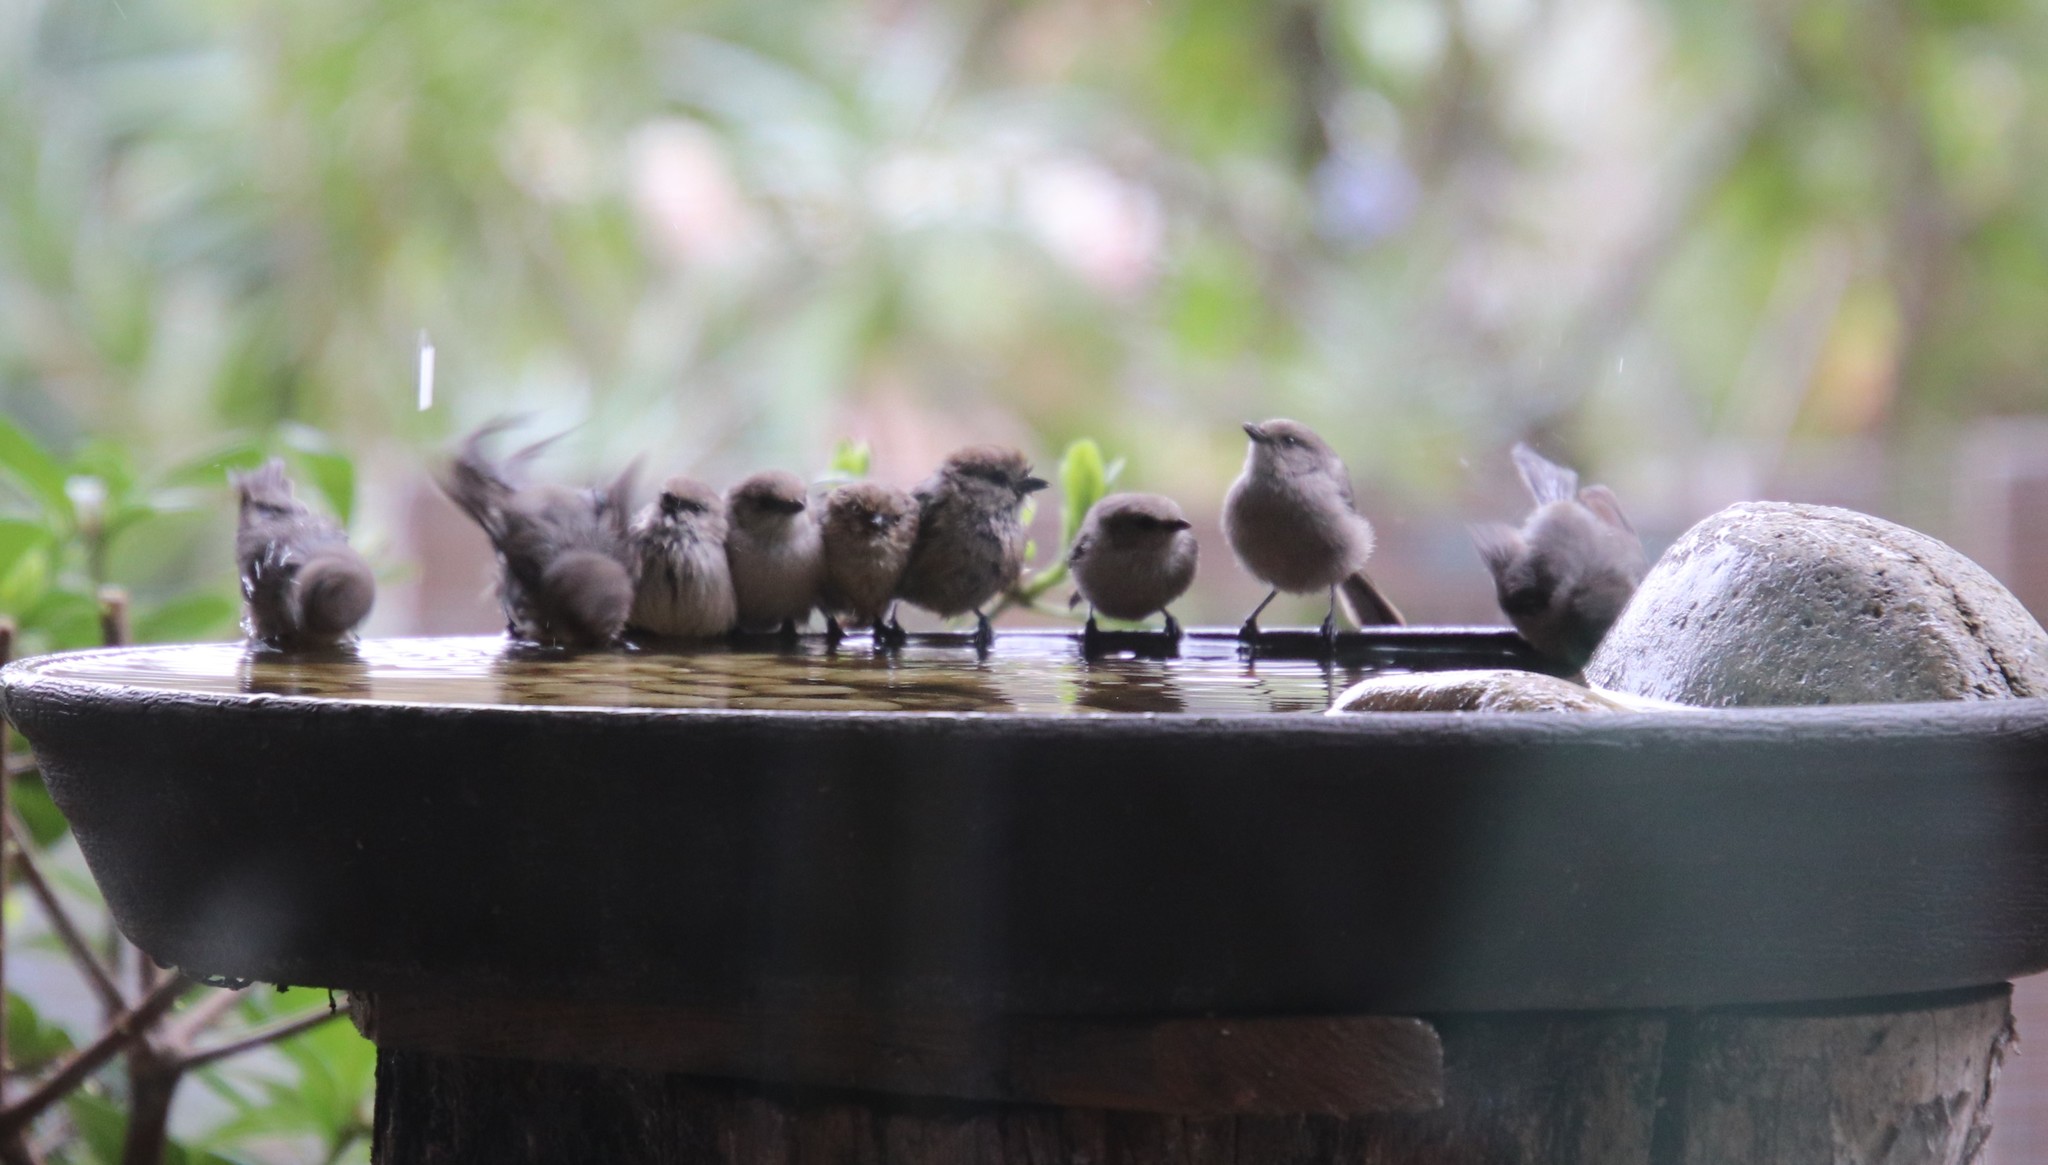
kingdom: Animalia
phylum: Chordata
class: Aves
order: Passeriformes
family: Aegithalidae
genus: Psaltriparus
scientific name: Psaltriparus minimus
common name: American bushtit
